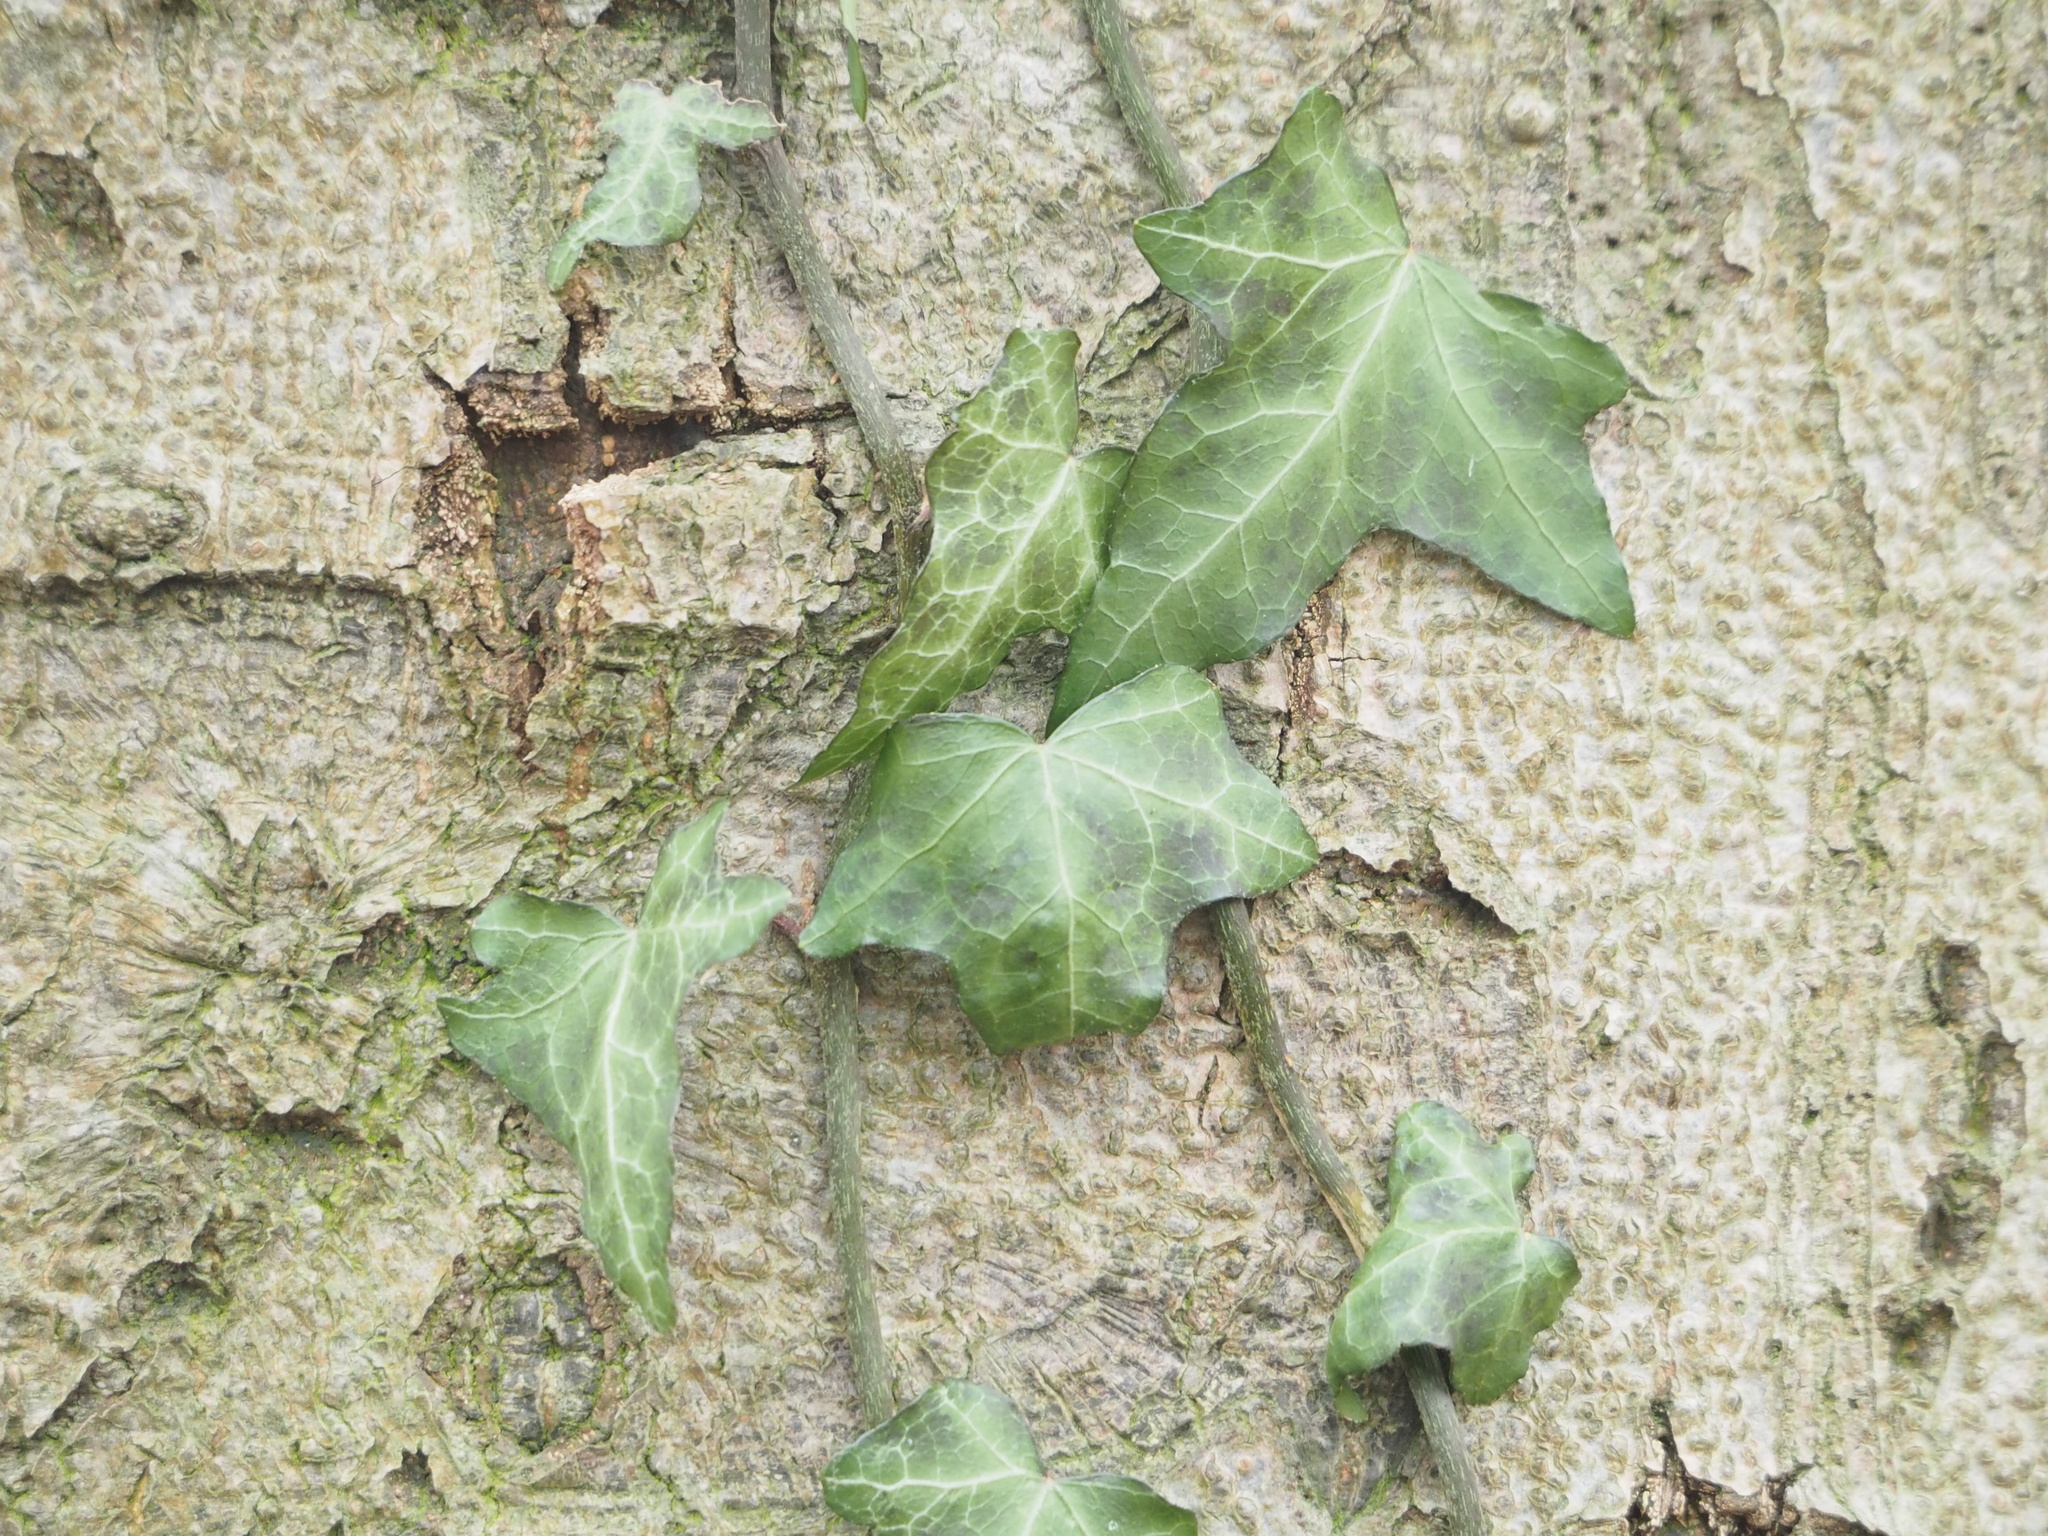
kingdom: Plantae
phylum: Tracheophyta
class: Magnoliopsida
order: Apiales
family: Araliaceae
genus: Hedera
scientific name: Hedera helix
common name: Ivy
